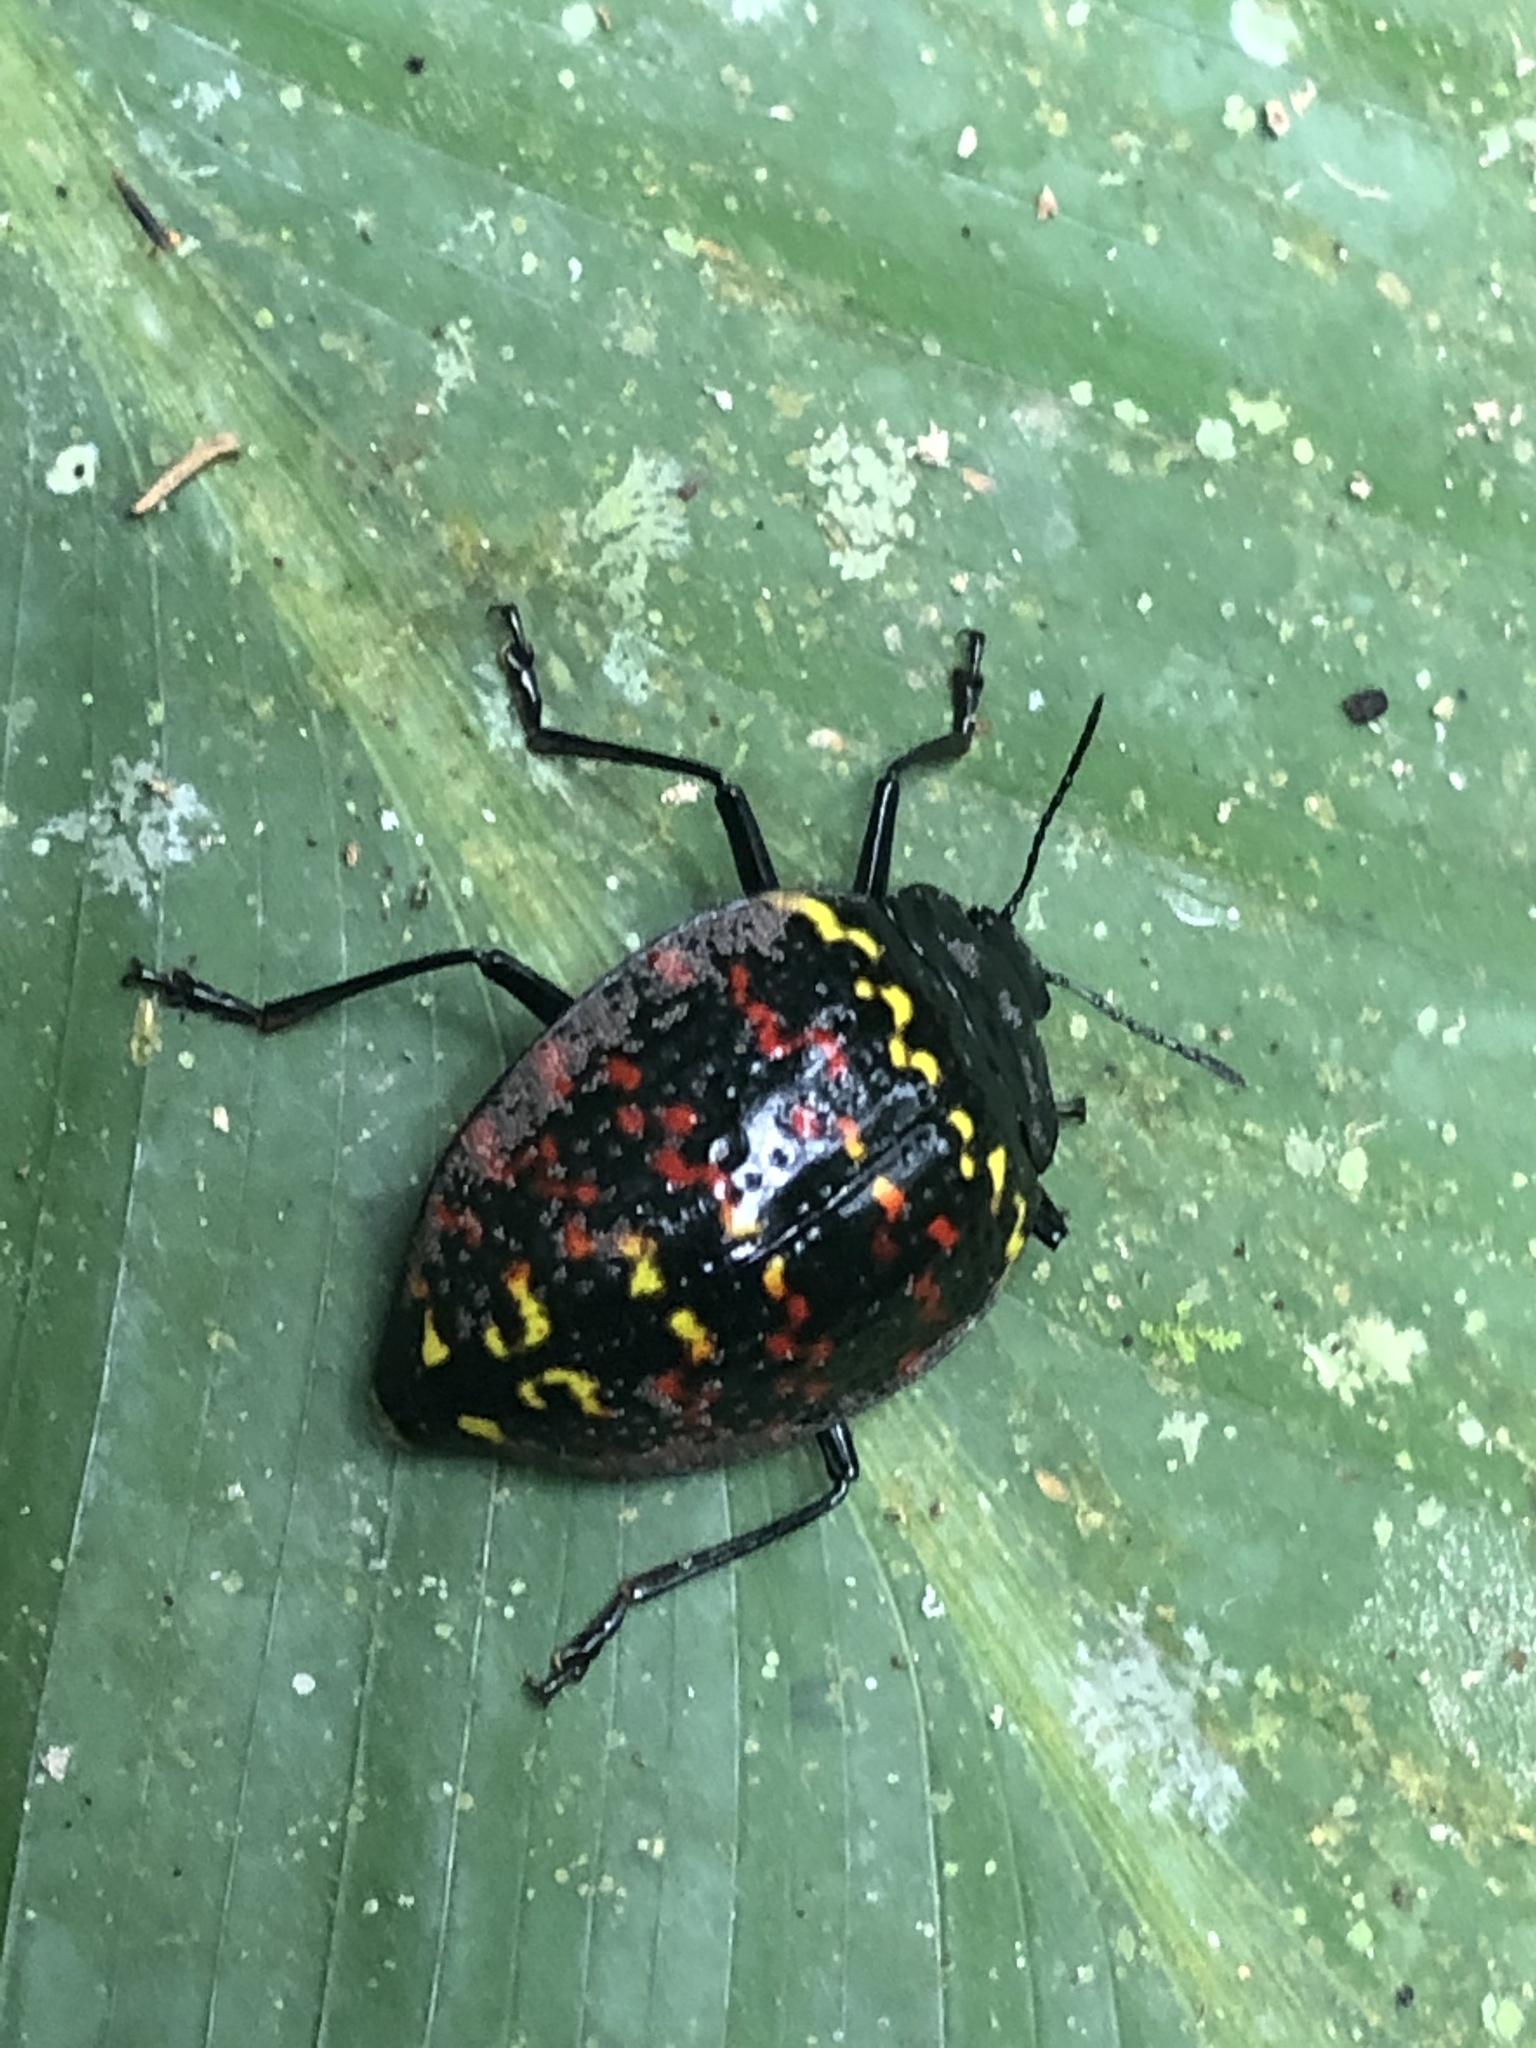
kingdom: Animalia
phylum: Arthropoda
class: Insecta
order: Coleoptera
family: Erotylidae
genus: Erotylus
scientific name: Erotylus
